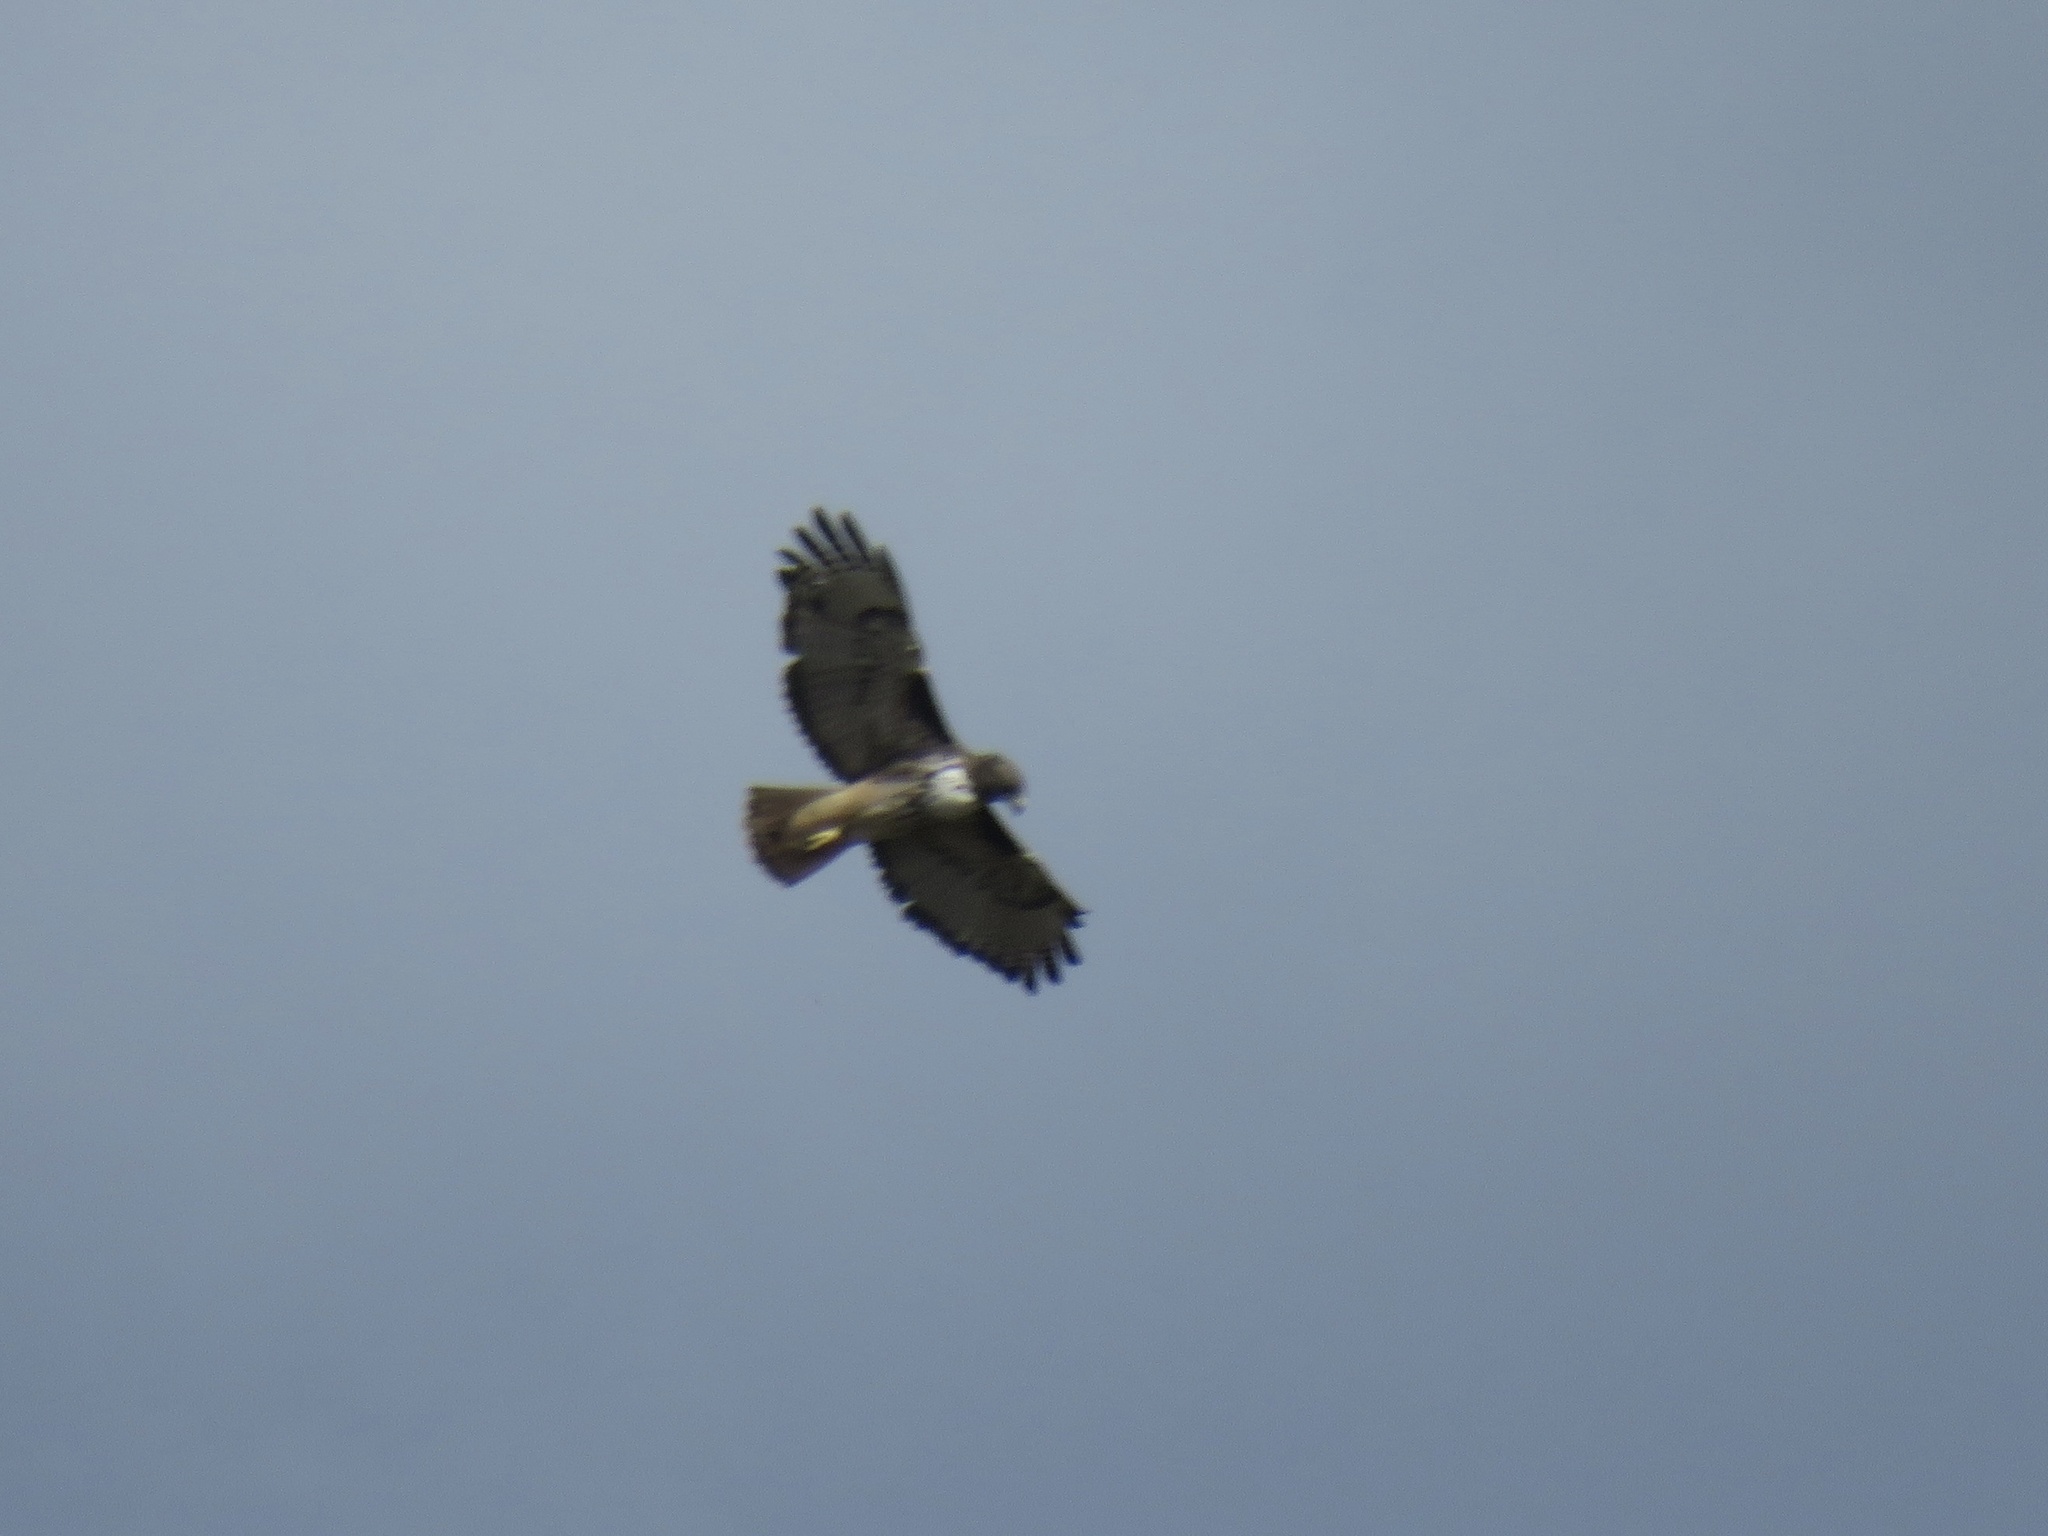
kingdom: Animalia
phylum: Chordata
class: Aves
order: Accipitriformes
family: Accipitridae
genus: Buteo
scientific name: Buteo jamaicensis
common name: Red-tailed hawk
